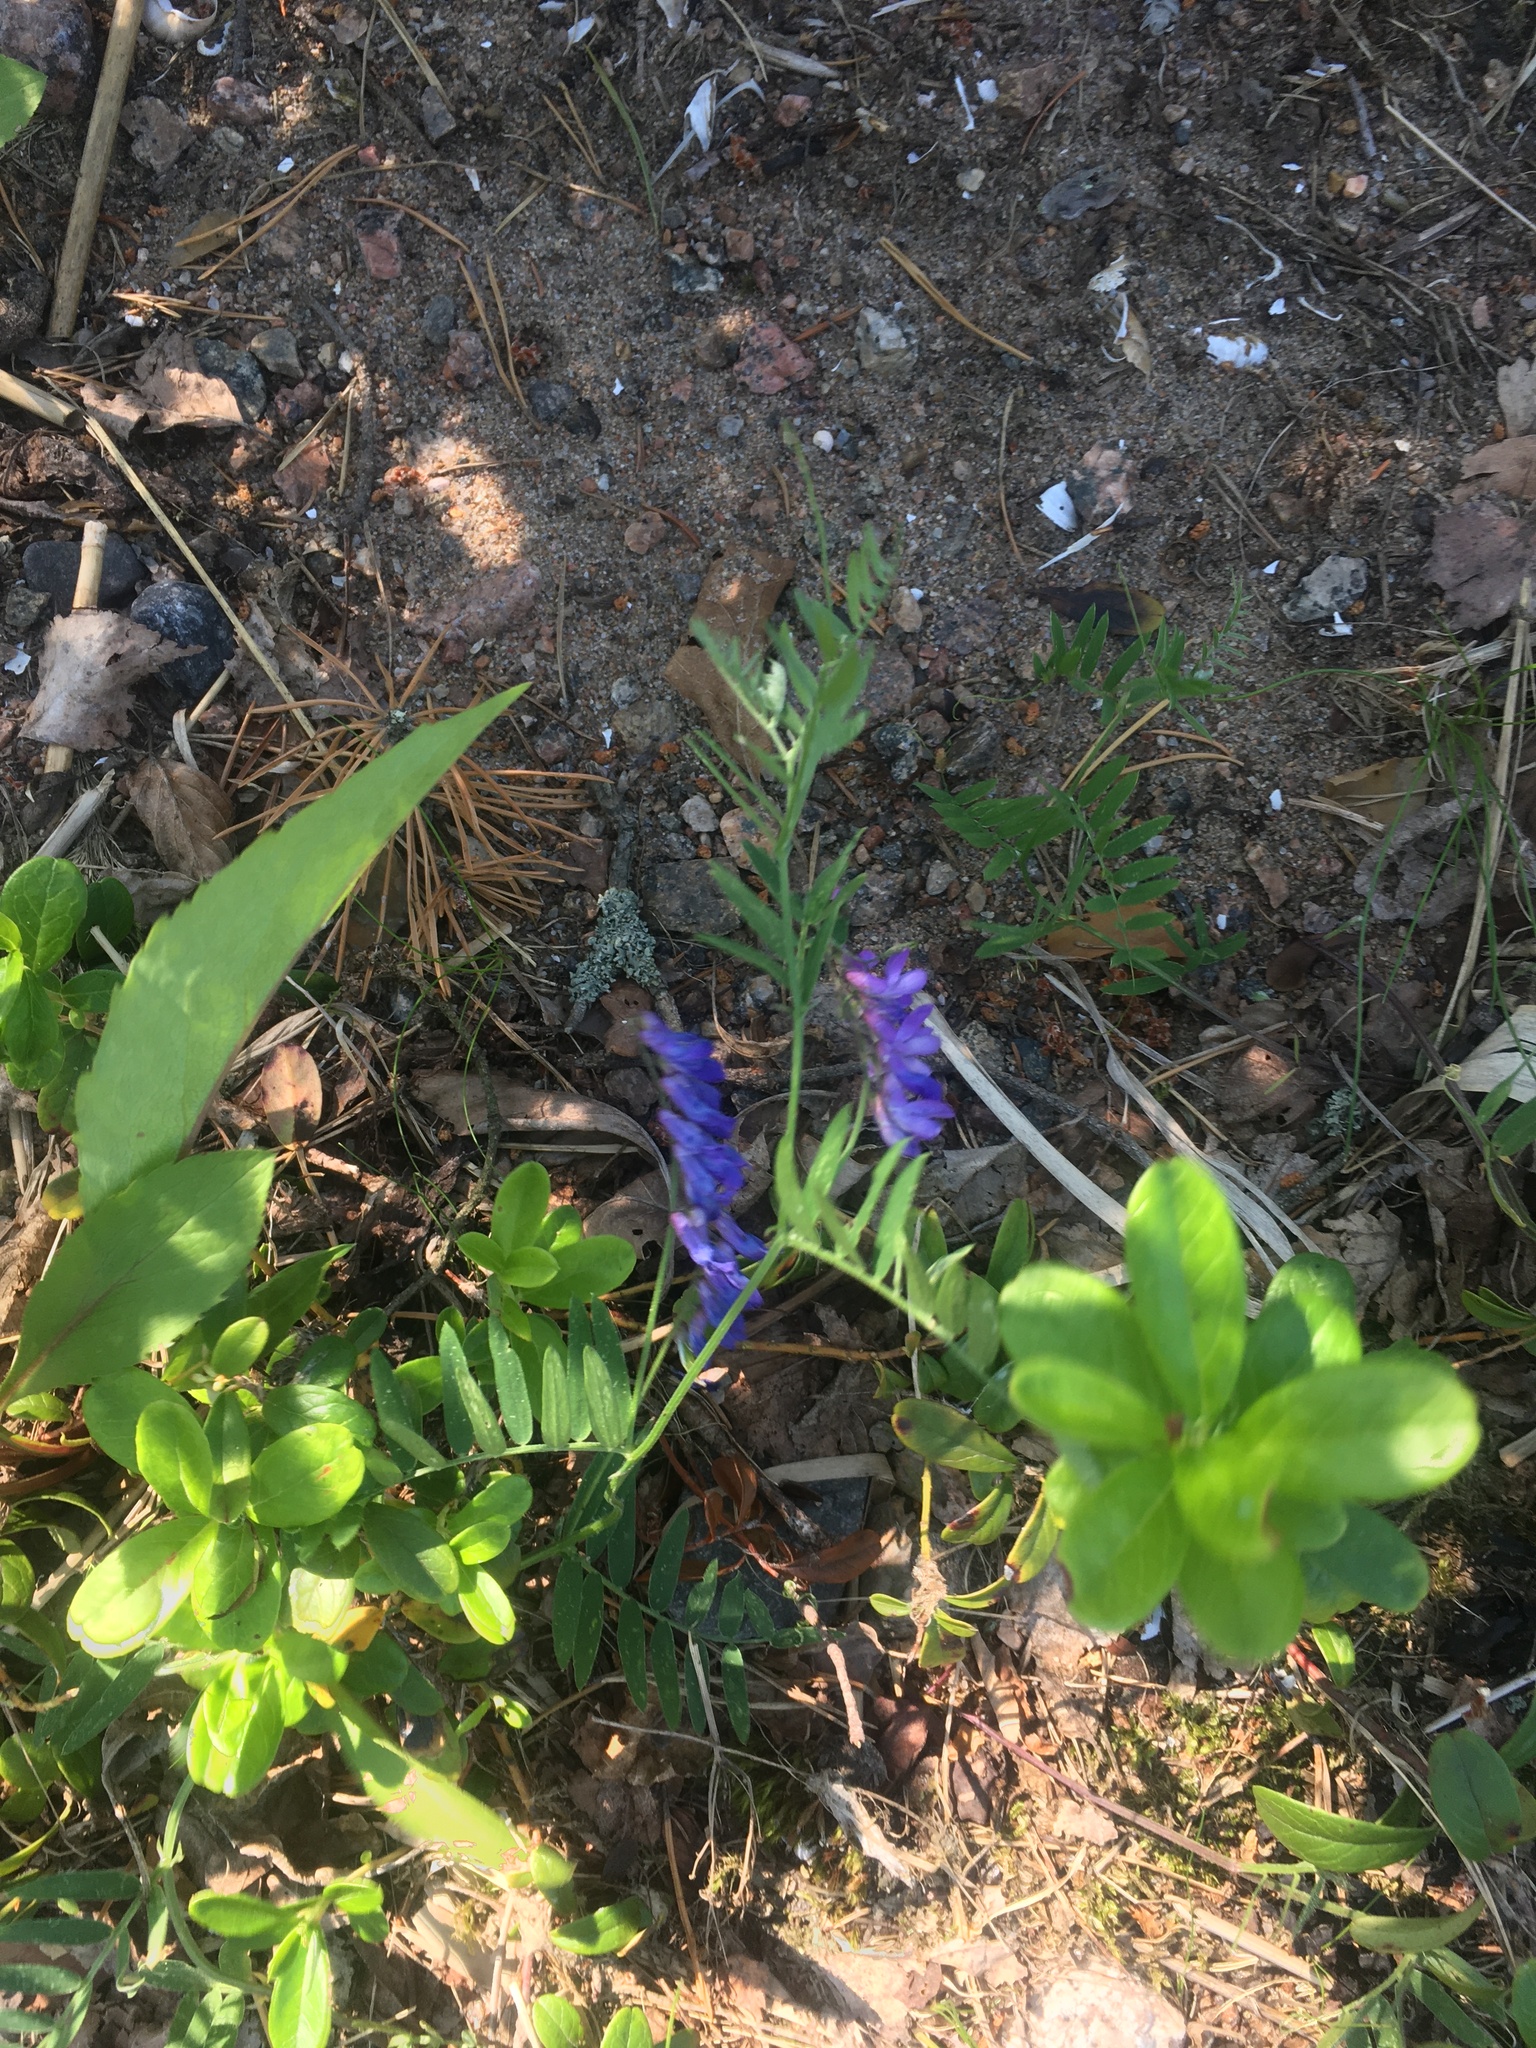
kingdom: Plantae
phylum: Tracheophyta
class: Magnoliopsida
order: Fabales
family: Fabaceae
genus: Vicia
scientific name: Vicia cracca
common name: Bird vetch
